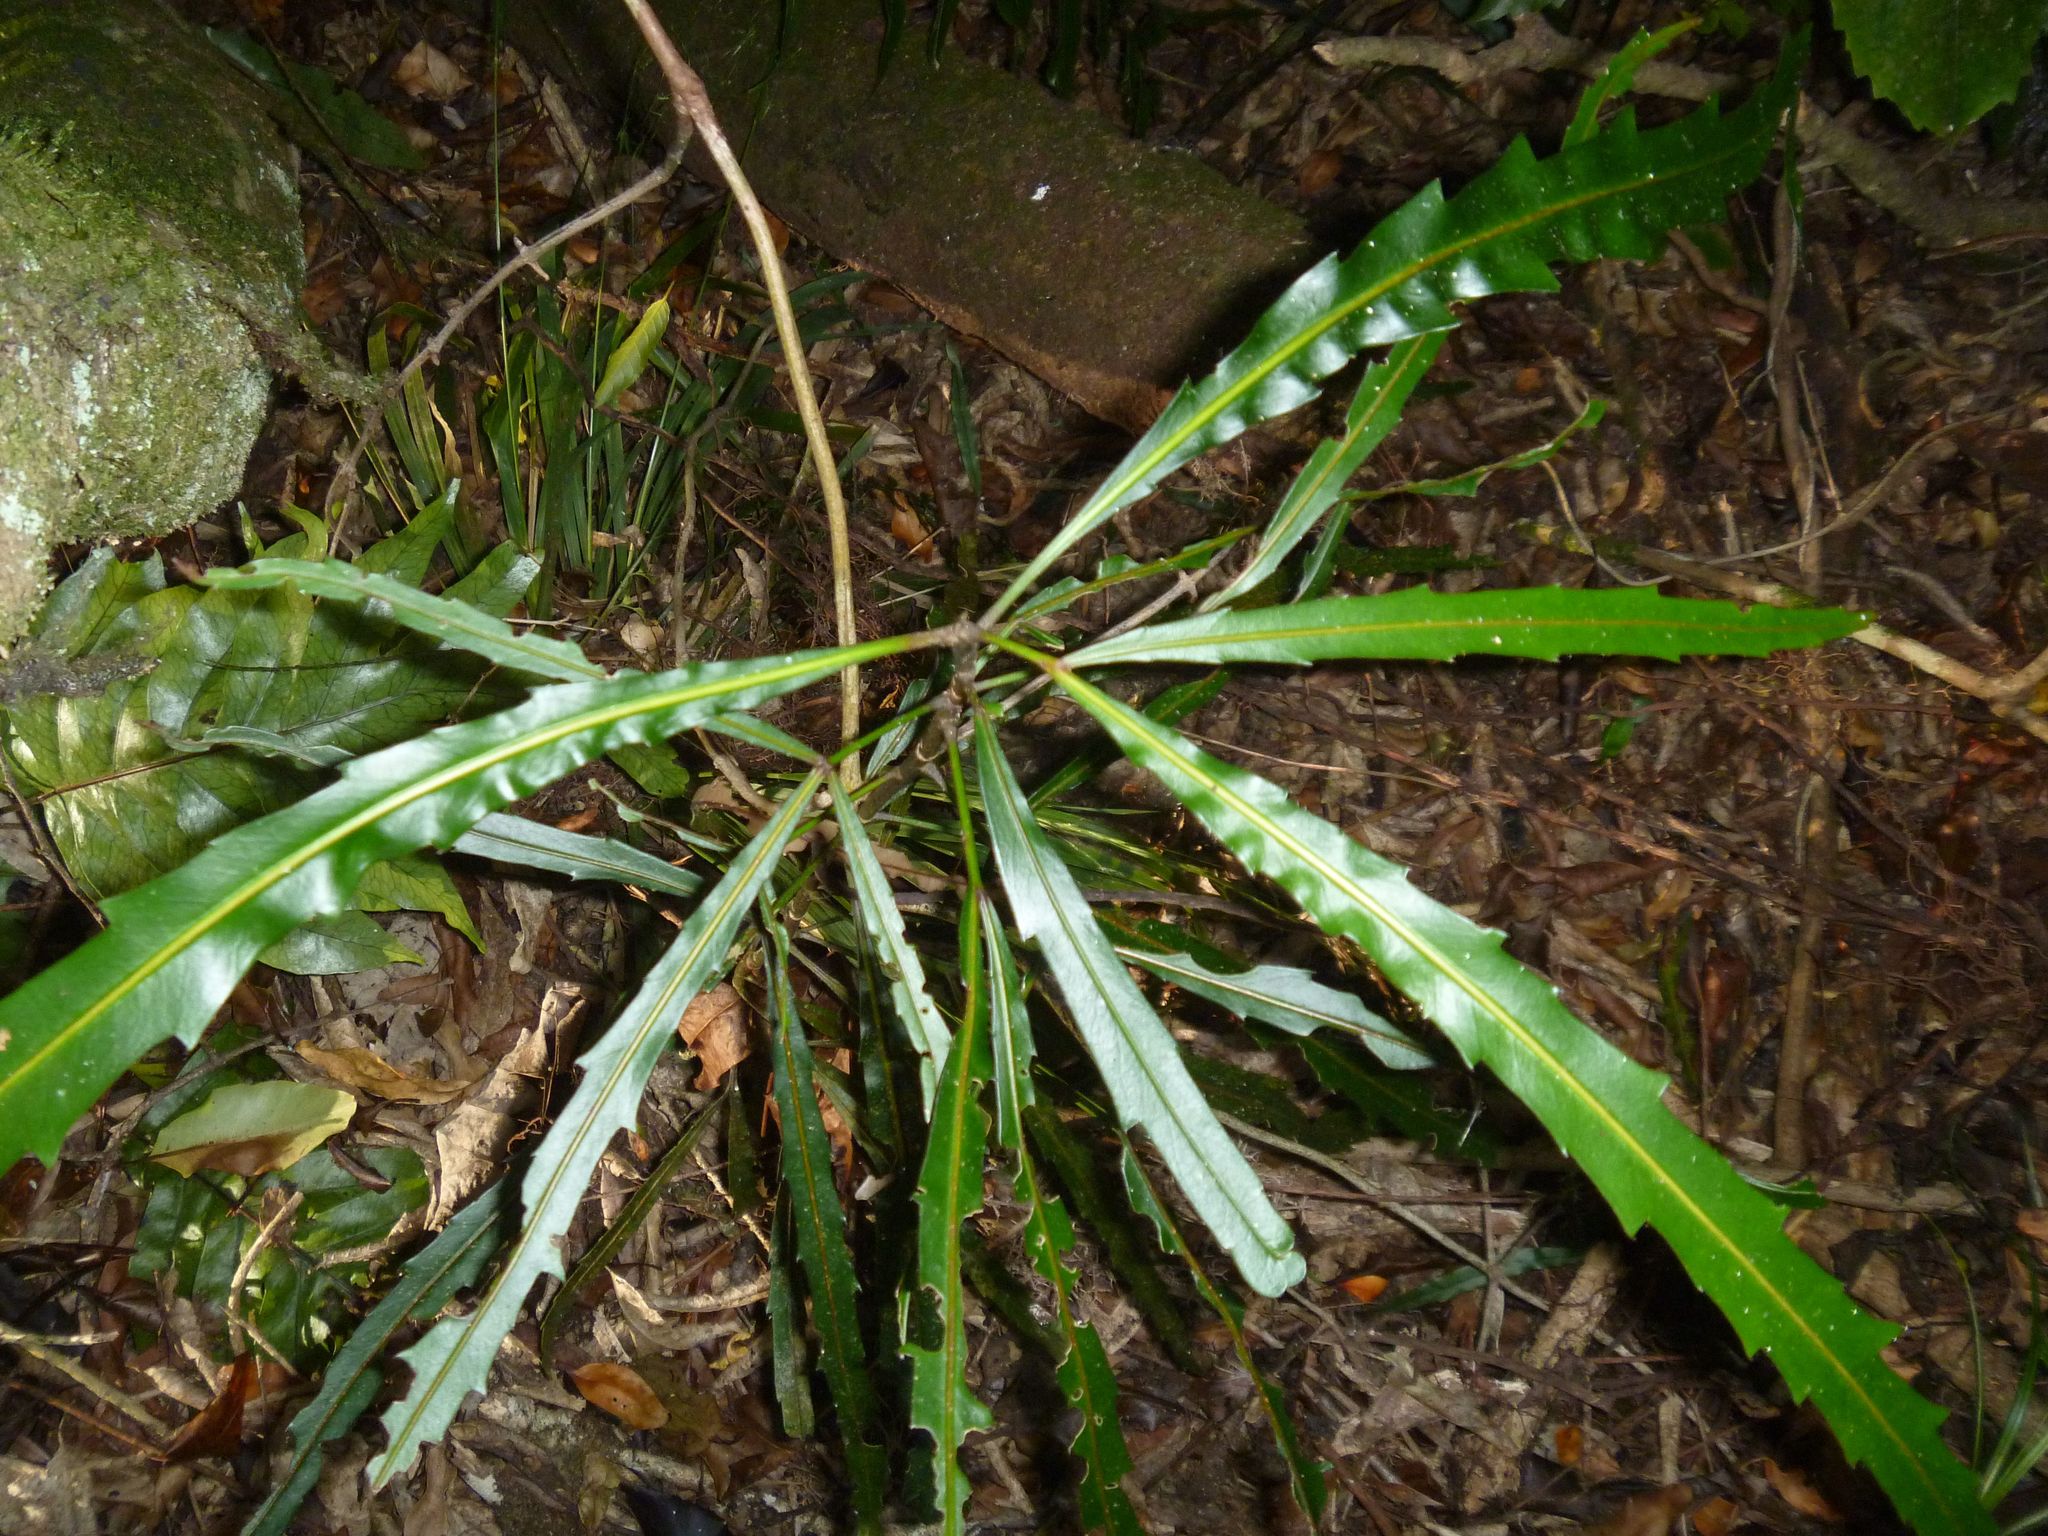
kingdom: Plantae
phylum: Tracheophyta
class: Magnoliopsida
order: Apiales
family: Araliaceae
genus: Pseudopanax
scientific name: Pseudopanax
